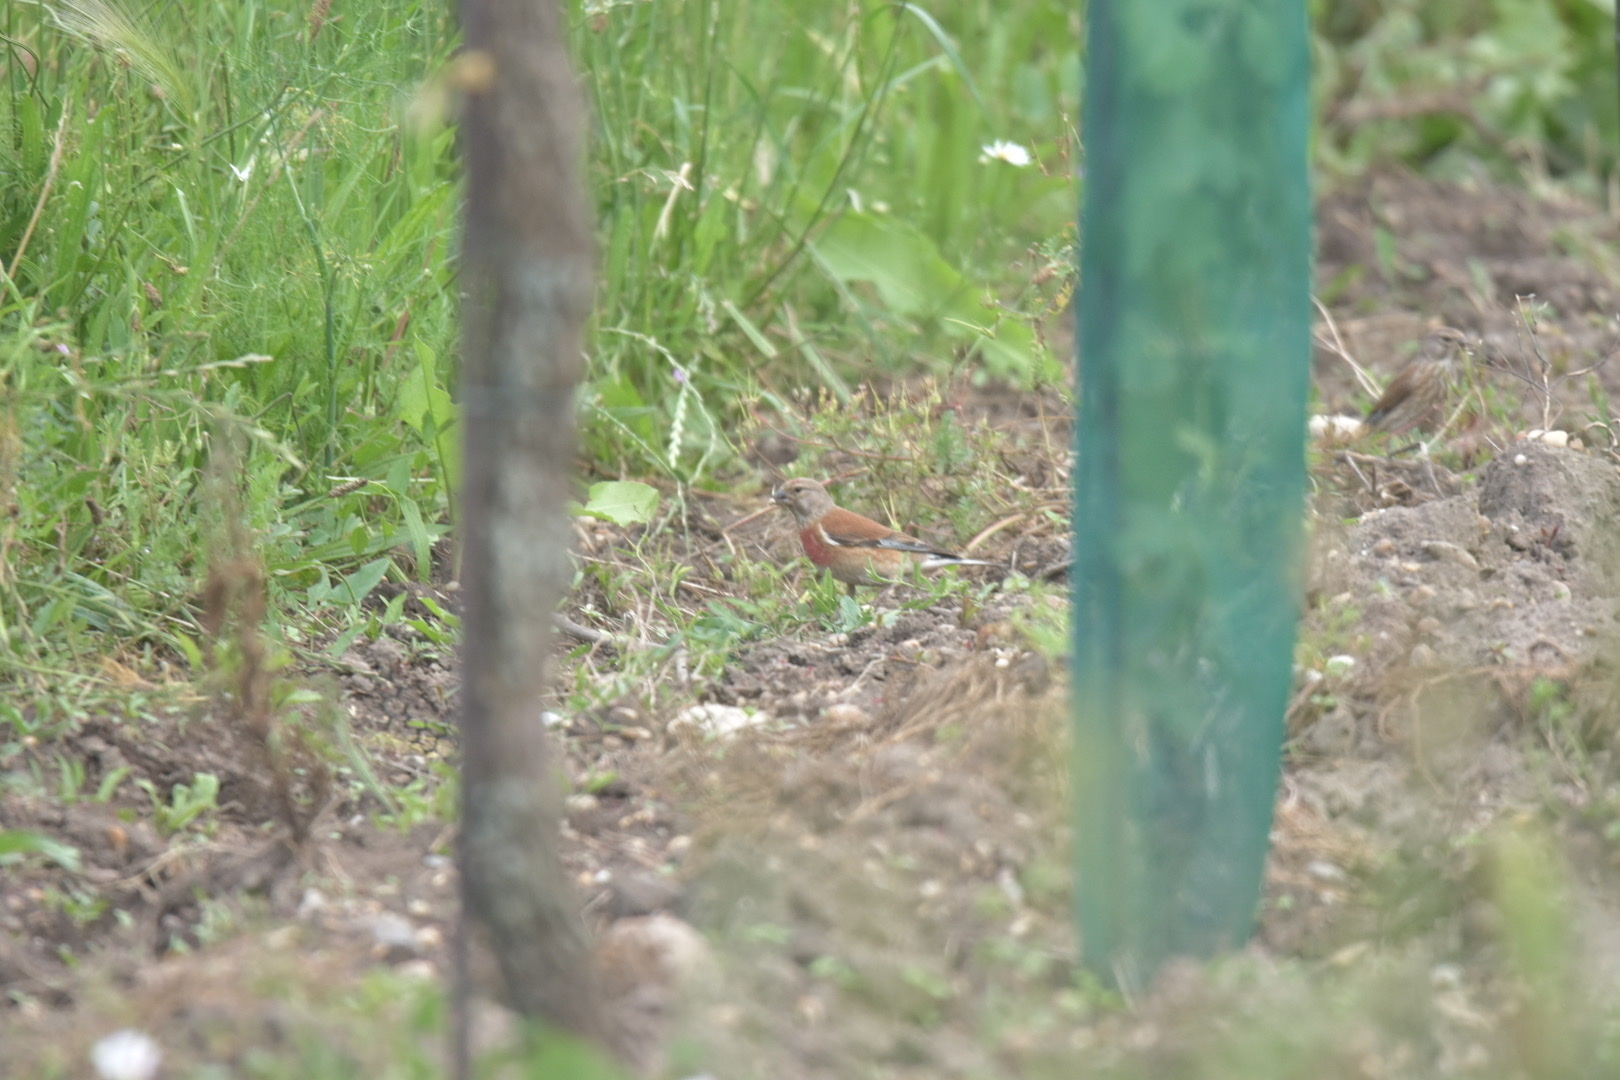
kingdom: Animalia
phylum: Chordata
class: Aves
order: Passeriformes
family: Fringillidae
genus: Linaria
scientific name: Linaria cannabina
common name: Common linnet
